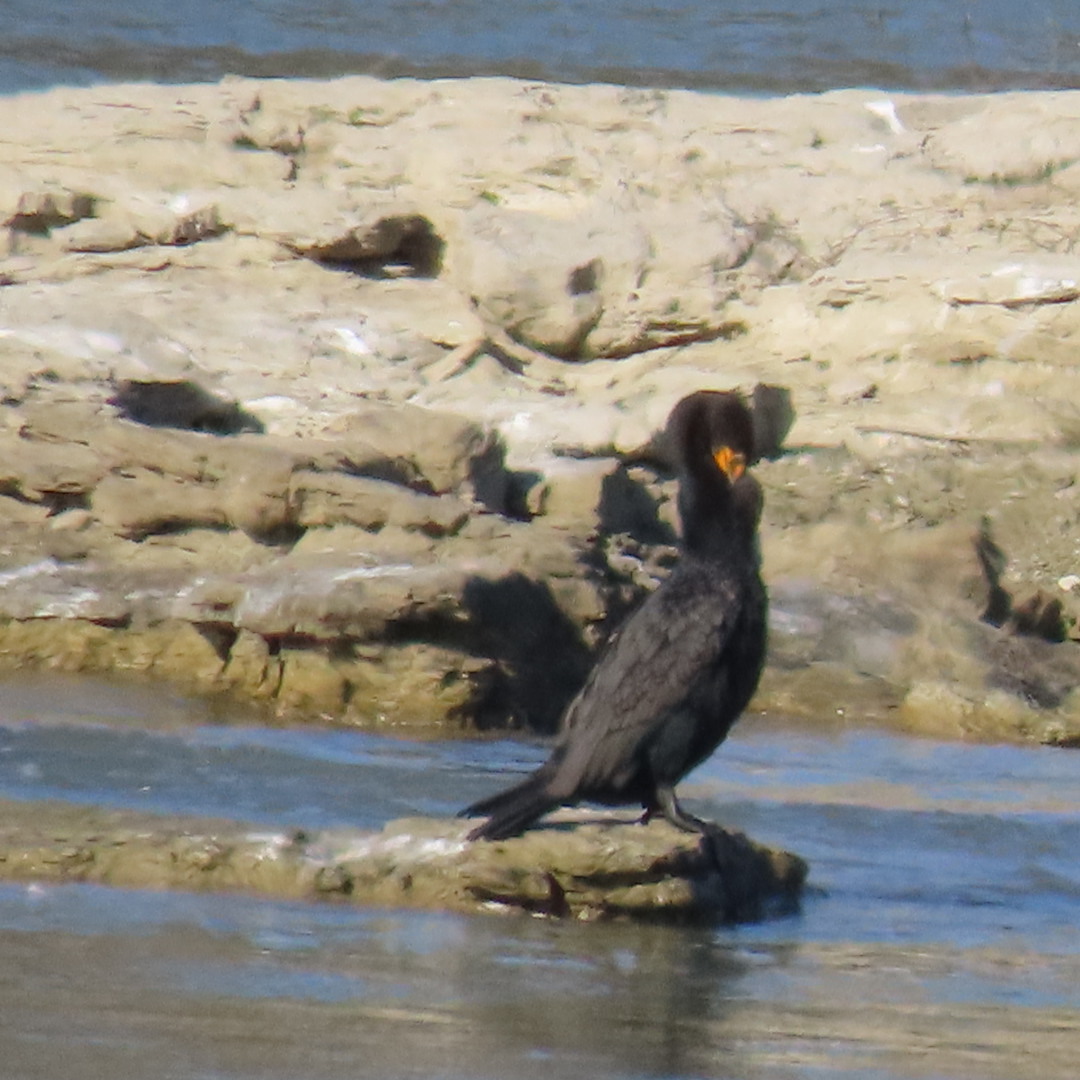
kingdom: Animalia
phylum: Chordata
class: Aves
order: Suliformes
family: Phalacrocoracidae
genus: Phalacrocorax
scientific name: Phalacrocorax auritus
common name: Double-crested cormorant
